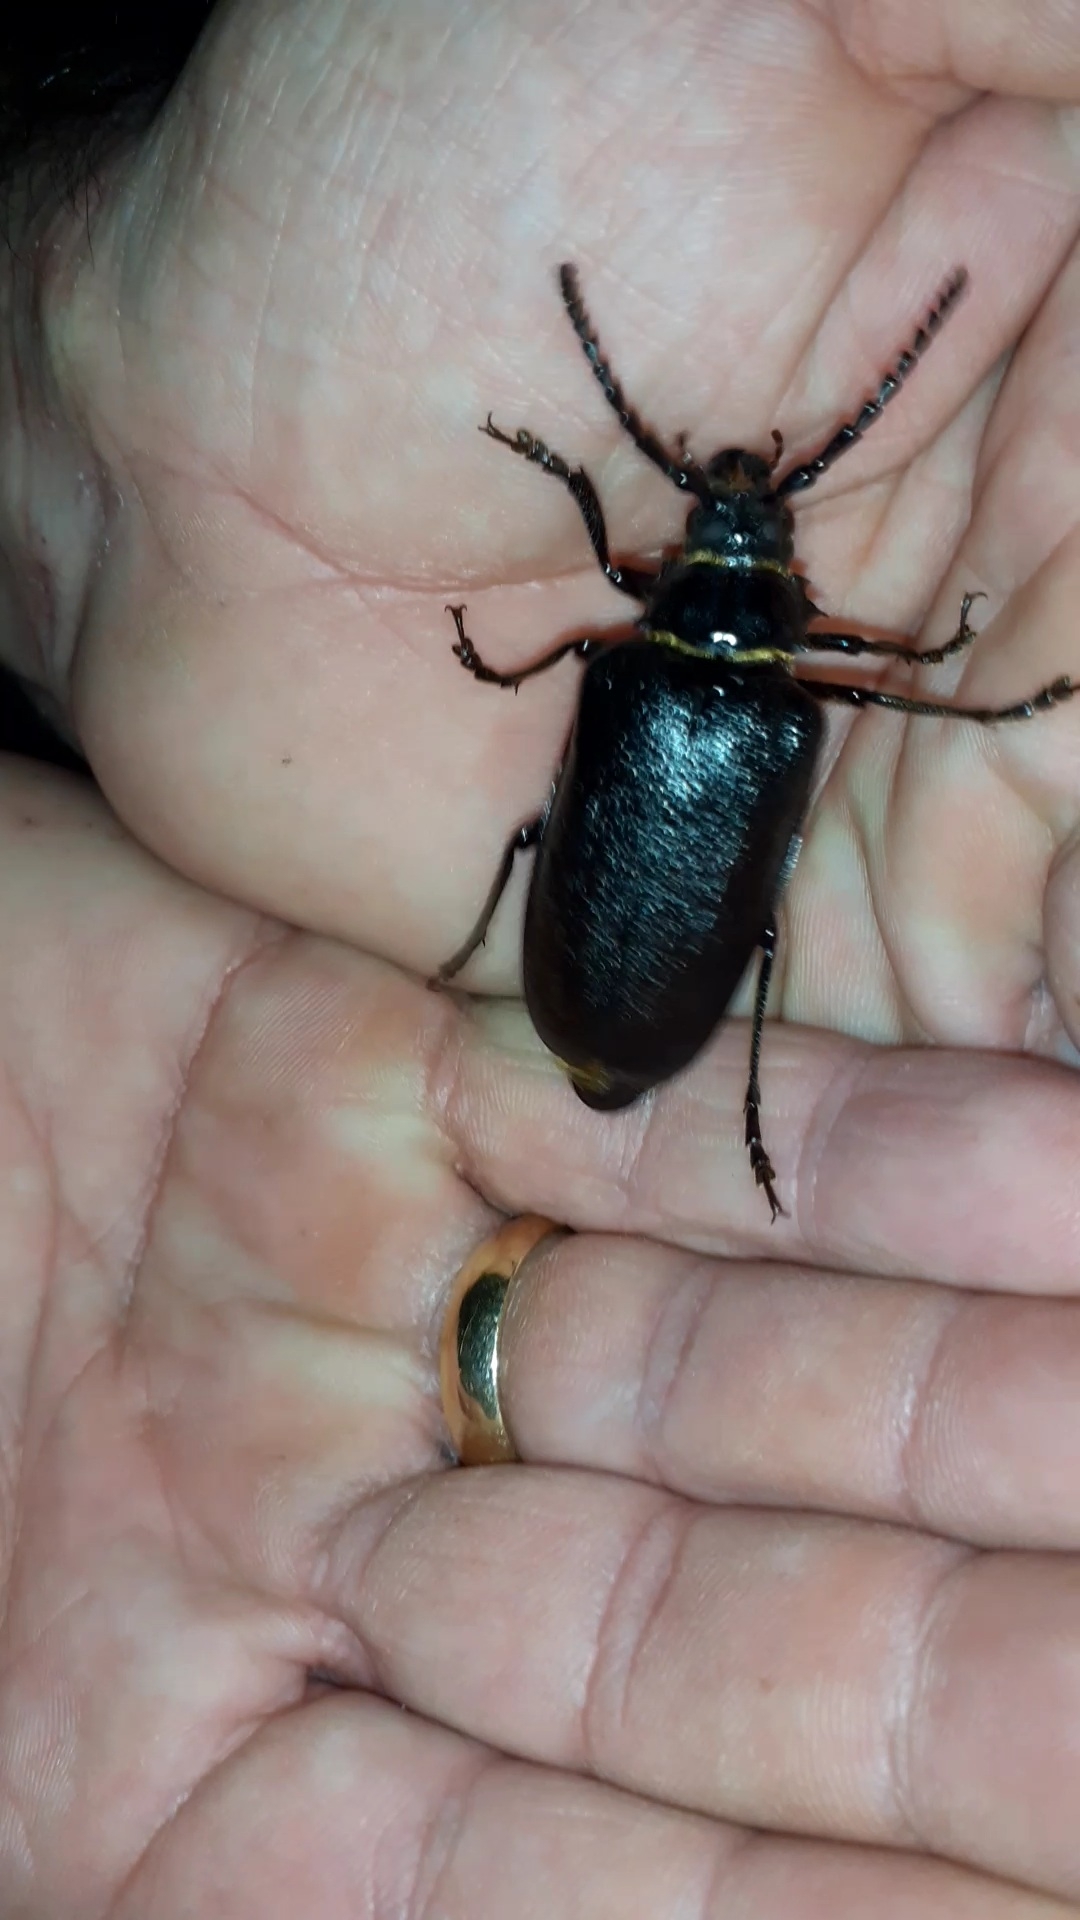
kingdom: Animalia
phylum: Arthropoda
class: Insecta
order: Coleoptera
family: Cerambycidae
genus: Prionus
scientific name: Prionus coriarius
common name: Tanner beetle
